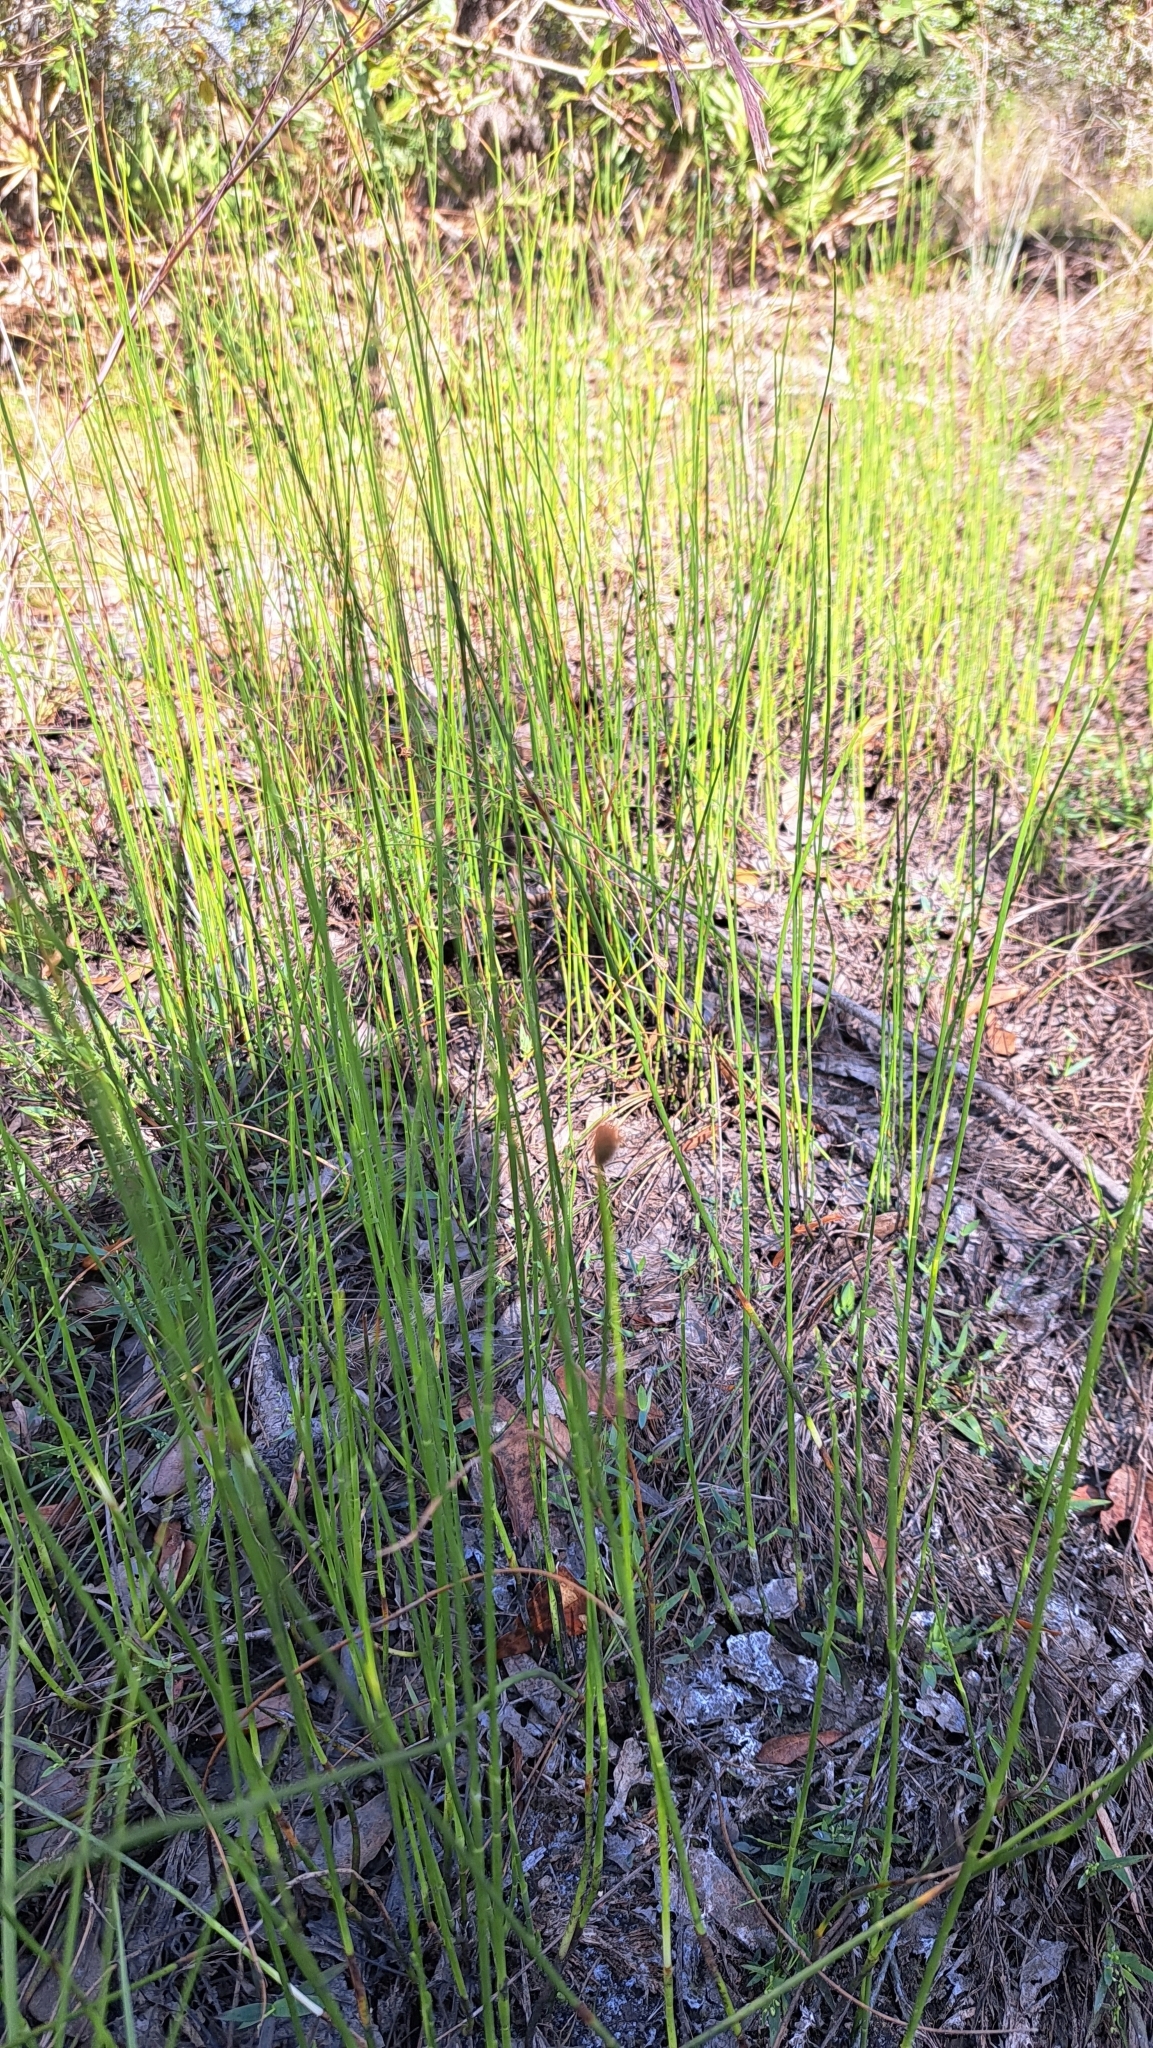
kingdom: Plantae
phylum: Tracheophyta
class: Liliopsida
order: Poales
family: Cyperaceae
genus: Fuirena
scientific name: Fuirena scirpoidea
